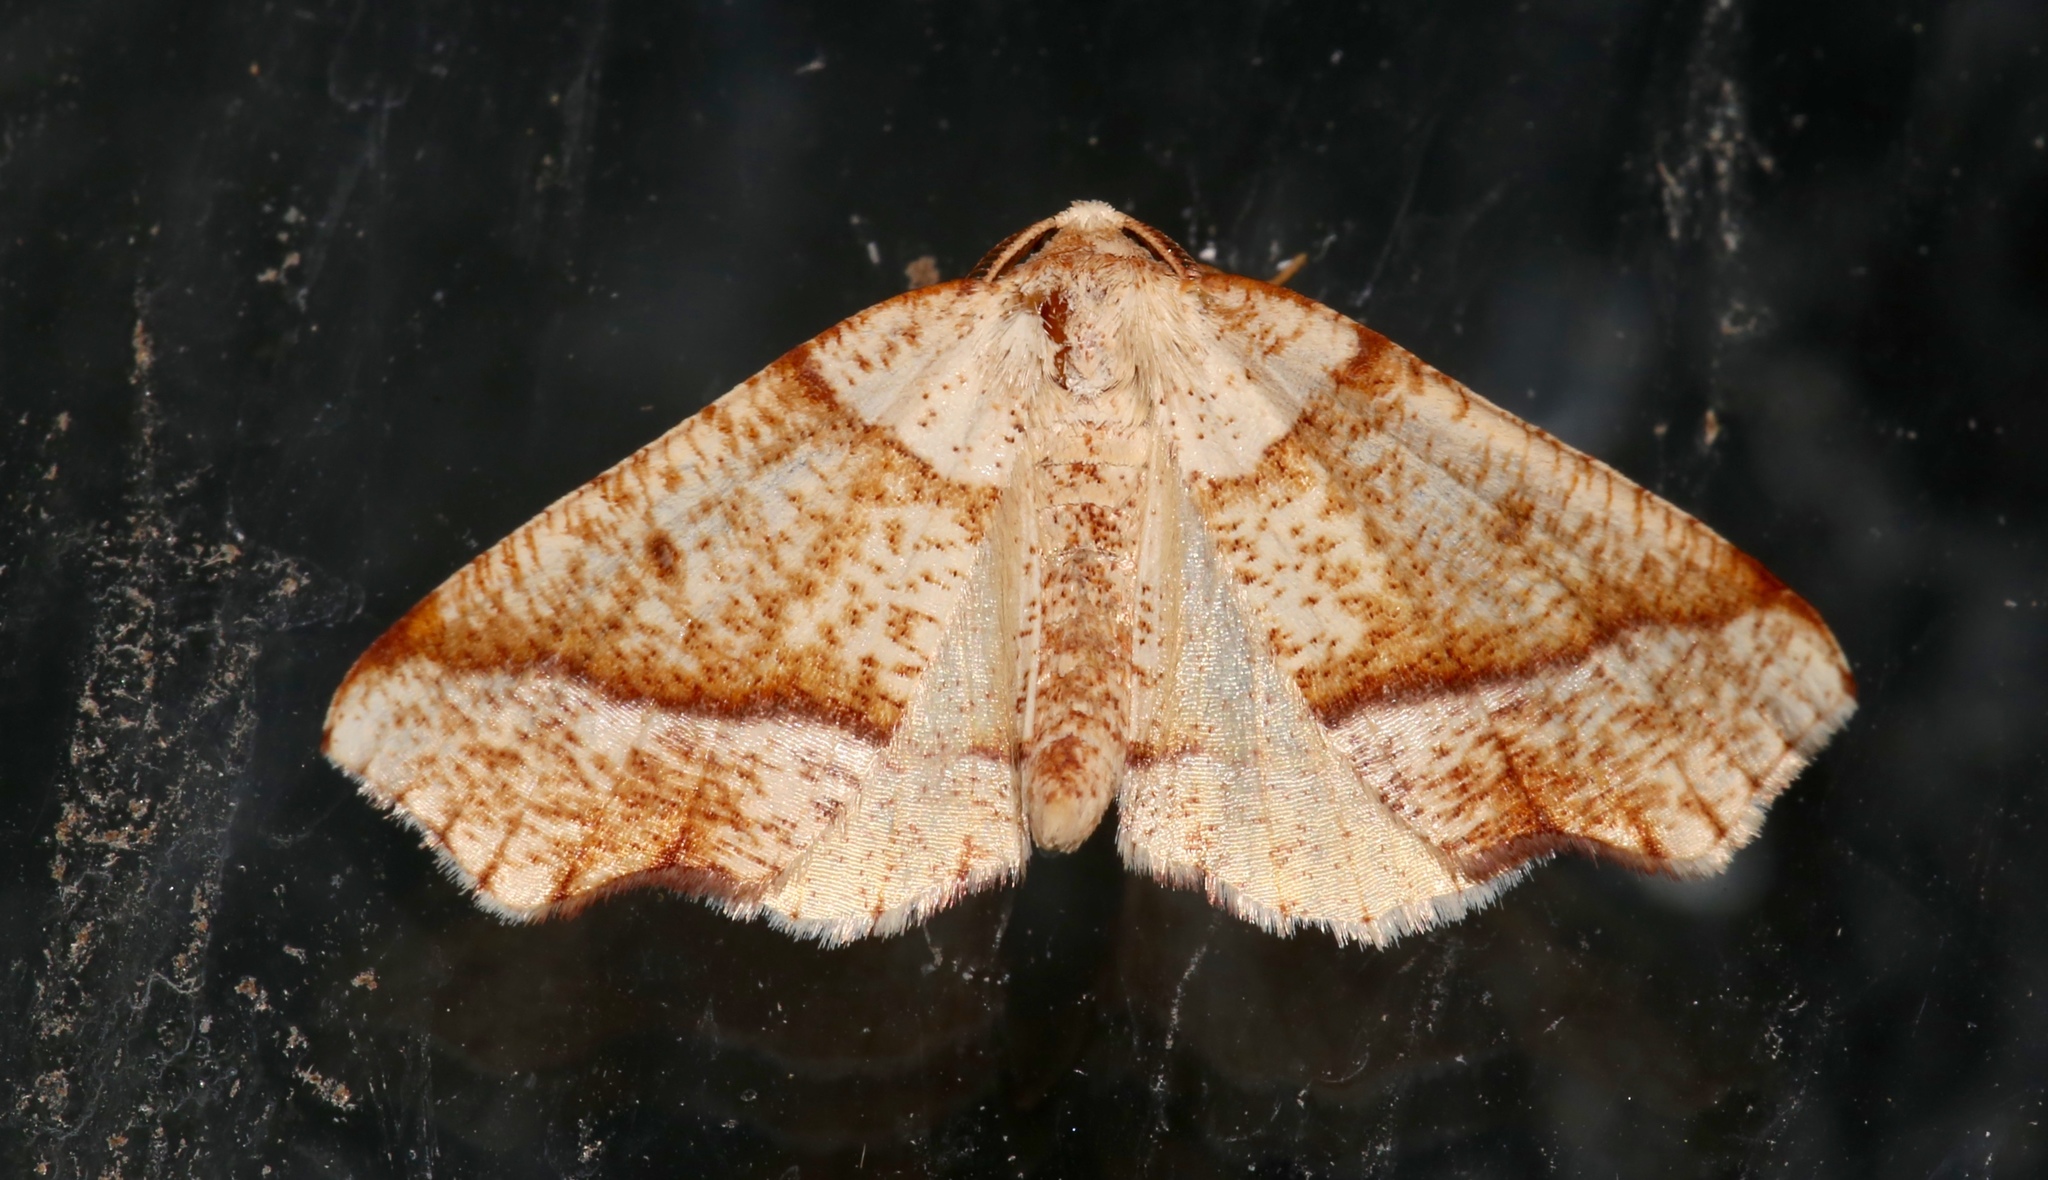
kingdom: Animalia
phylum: Arthropoda
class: Insecta
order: Lepidoptera
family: Geometridae
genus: Plagodis
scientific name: Plagodis alcoolaria
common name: Hollow-spotted plagodis
